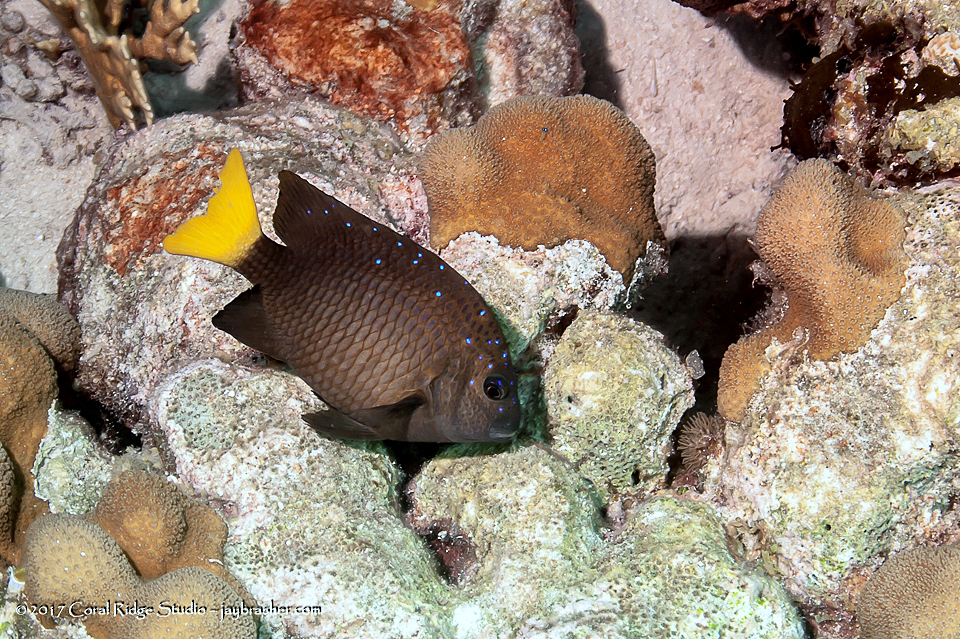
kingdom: Animalia
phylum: Chordata
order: Perciformes
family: Pomacentridae
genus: Microspathodon
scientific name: Microspathodon chrysurus
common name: Yellowtail damselfish
